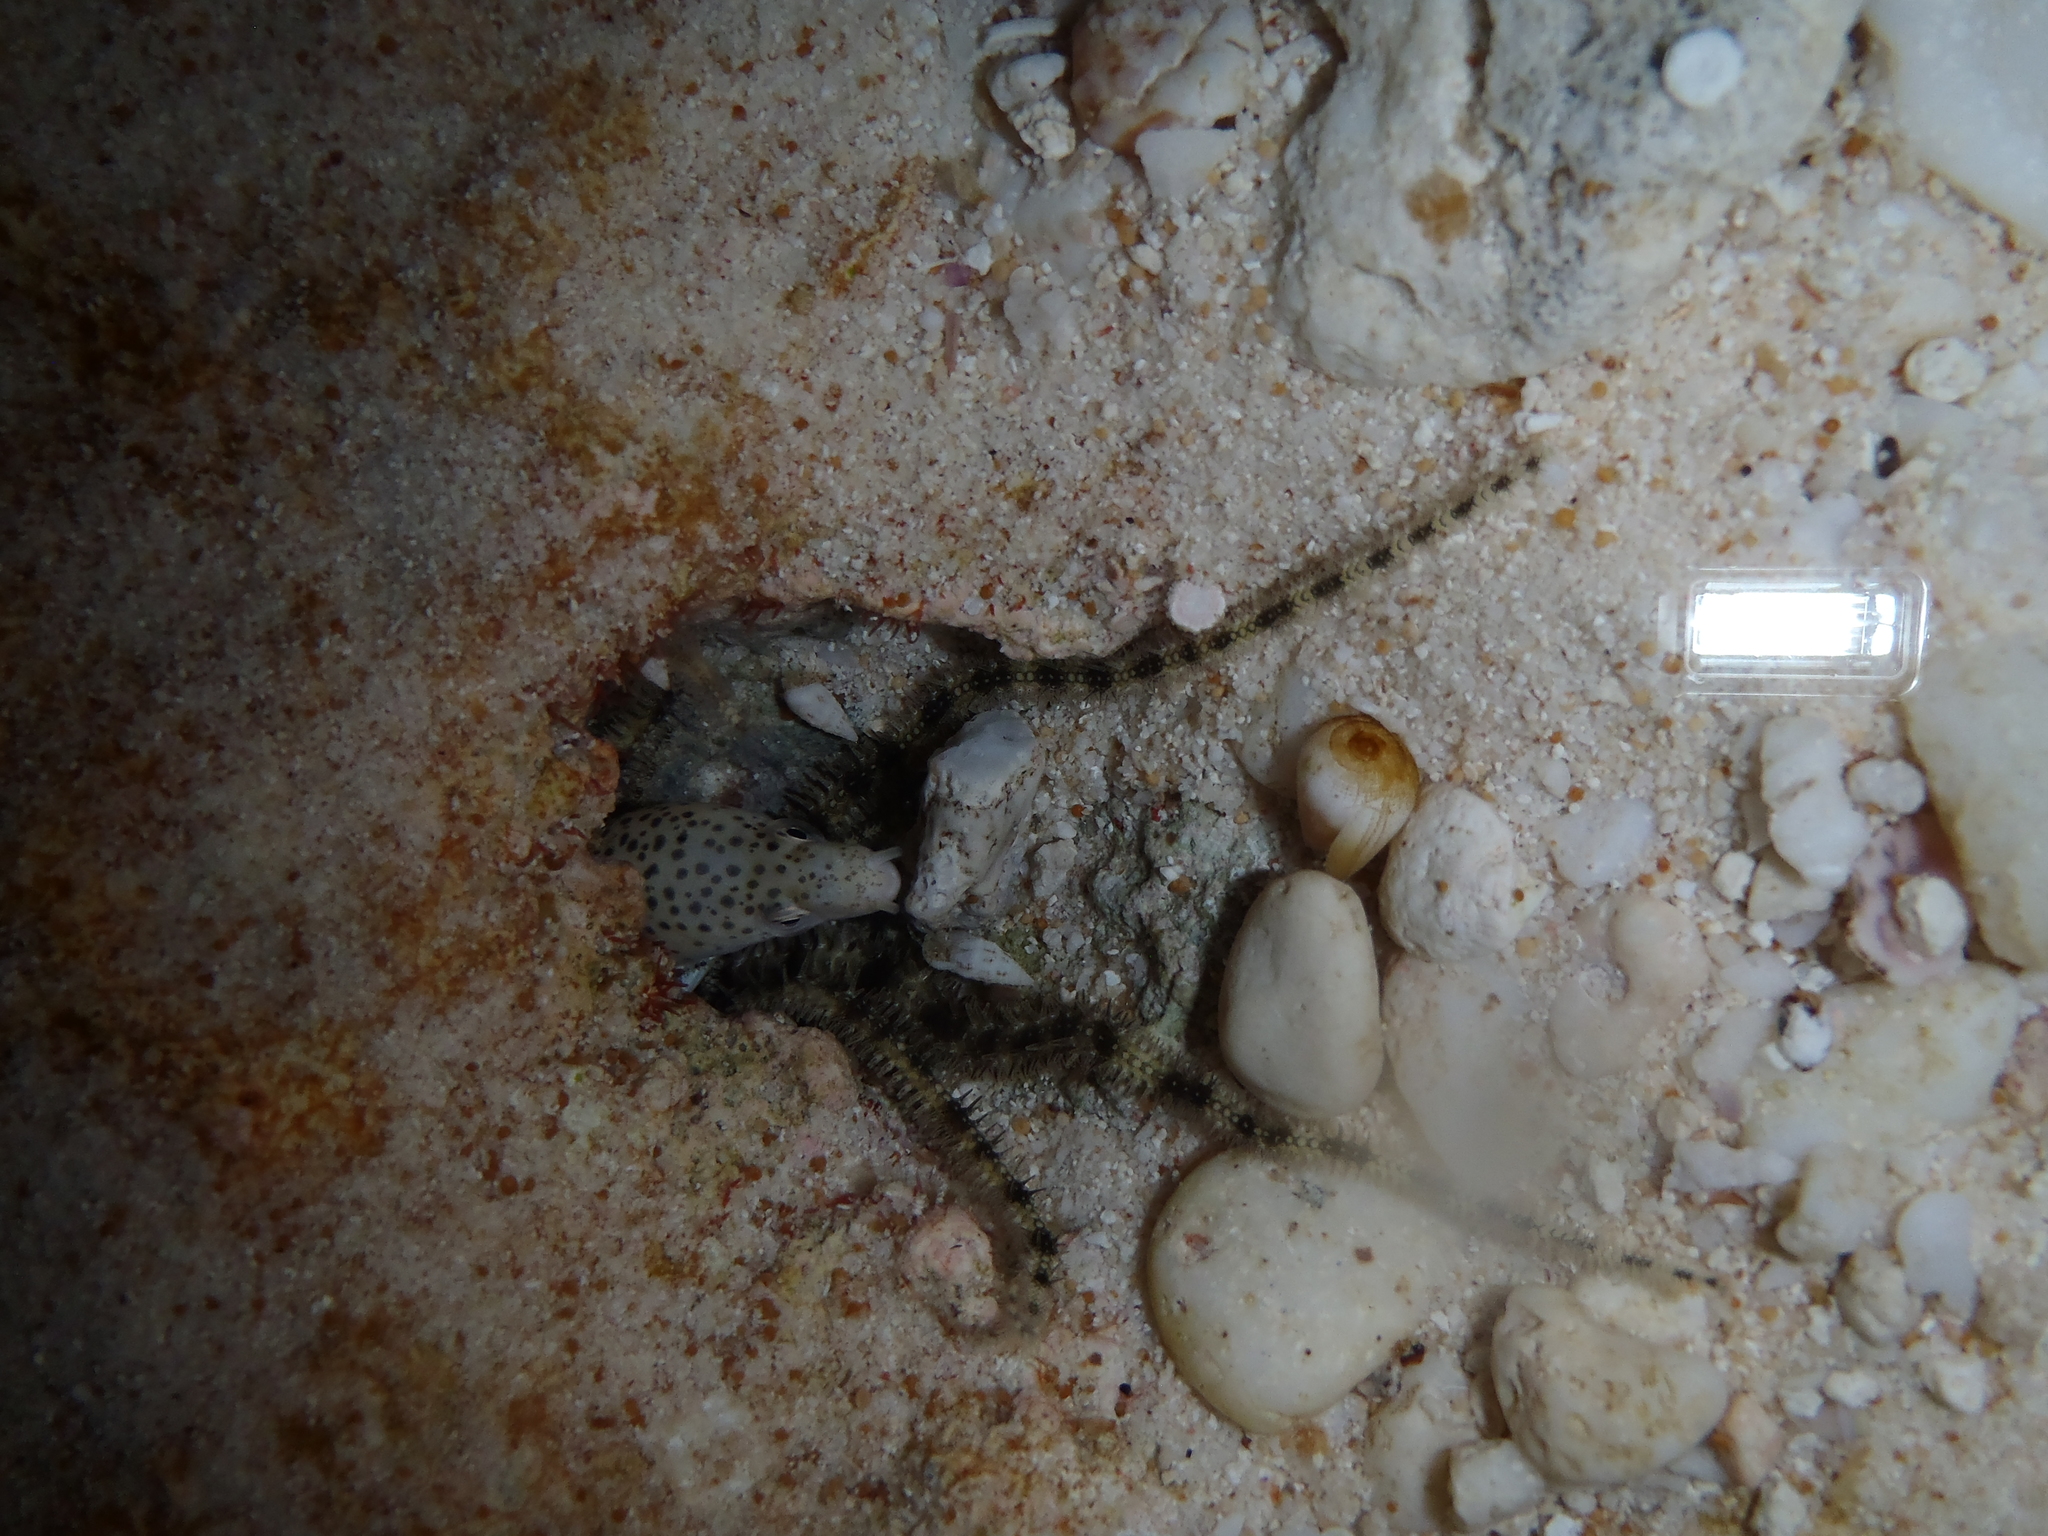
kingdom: Animalia
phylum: Chordata
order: Anguilliformes
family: Muraenidae
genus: Gymnothorax
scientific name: Gymnothorax pictus
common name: Peppered moray
